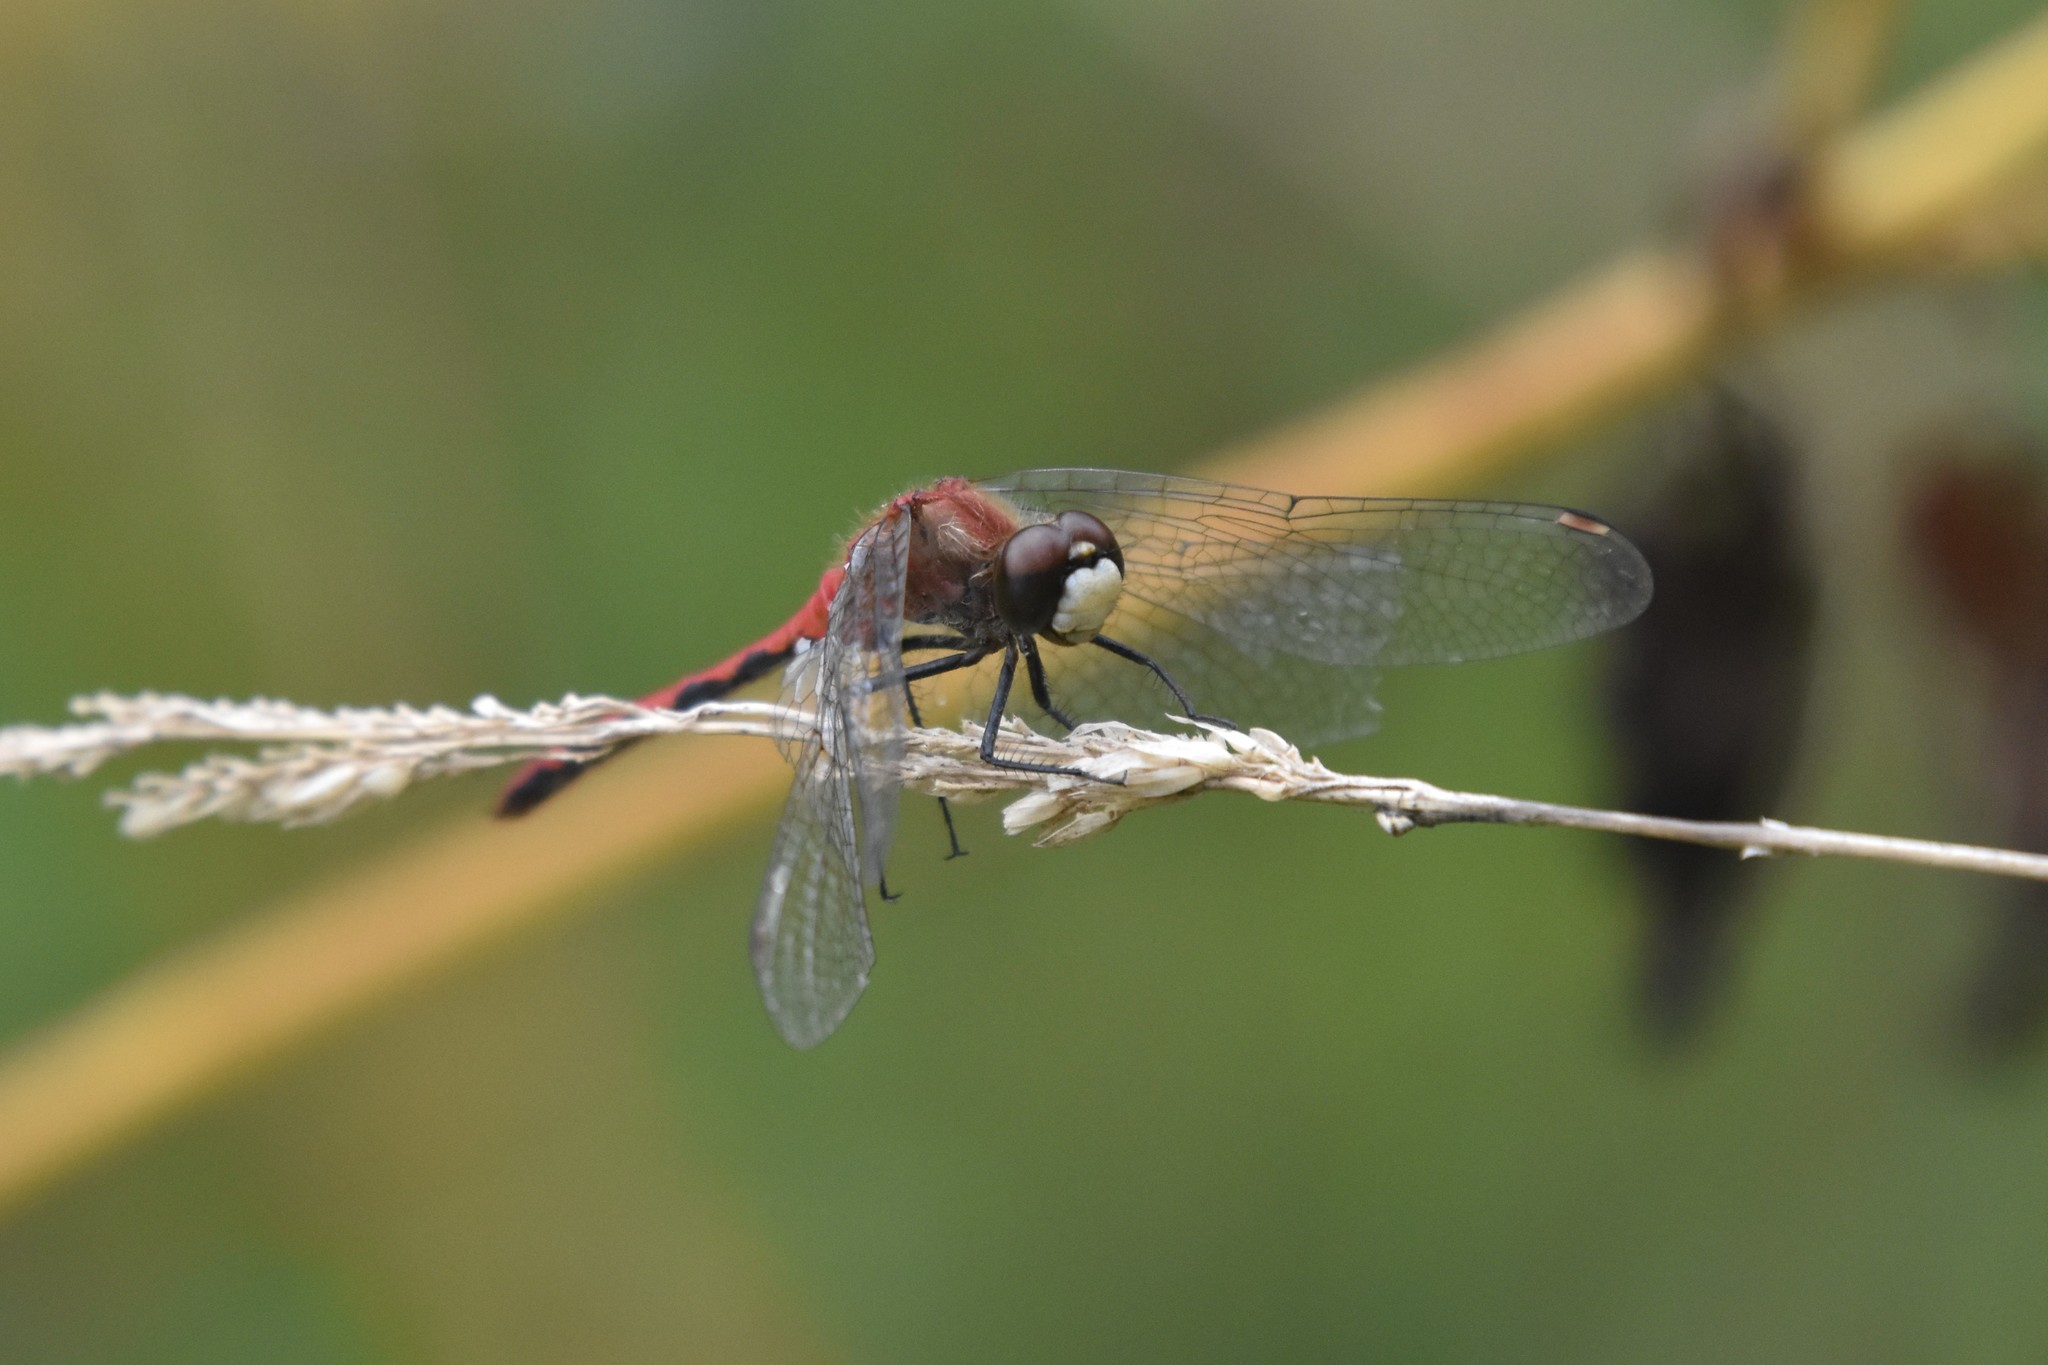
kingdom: Animalia
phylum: Arthropoda
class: Insecta
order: Odonata
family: Libellulidae
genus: Sympetrum
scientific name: Sympetrum obtrusum
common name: White-faced meadowhawk
